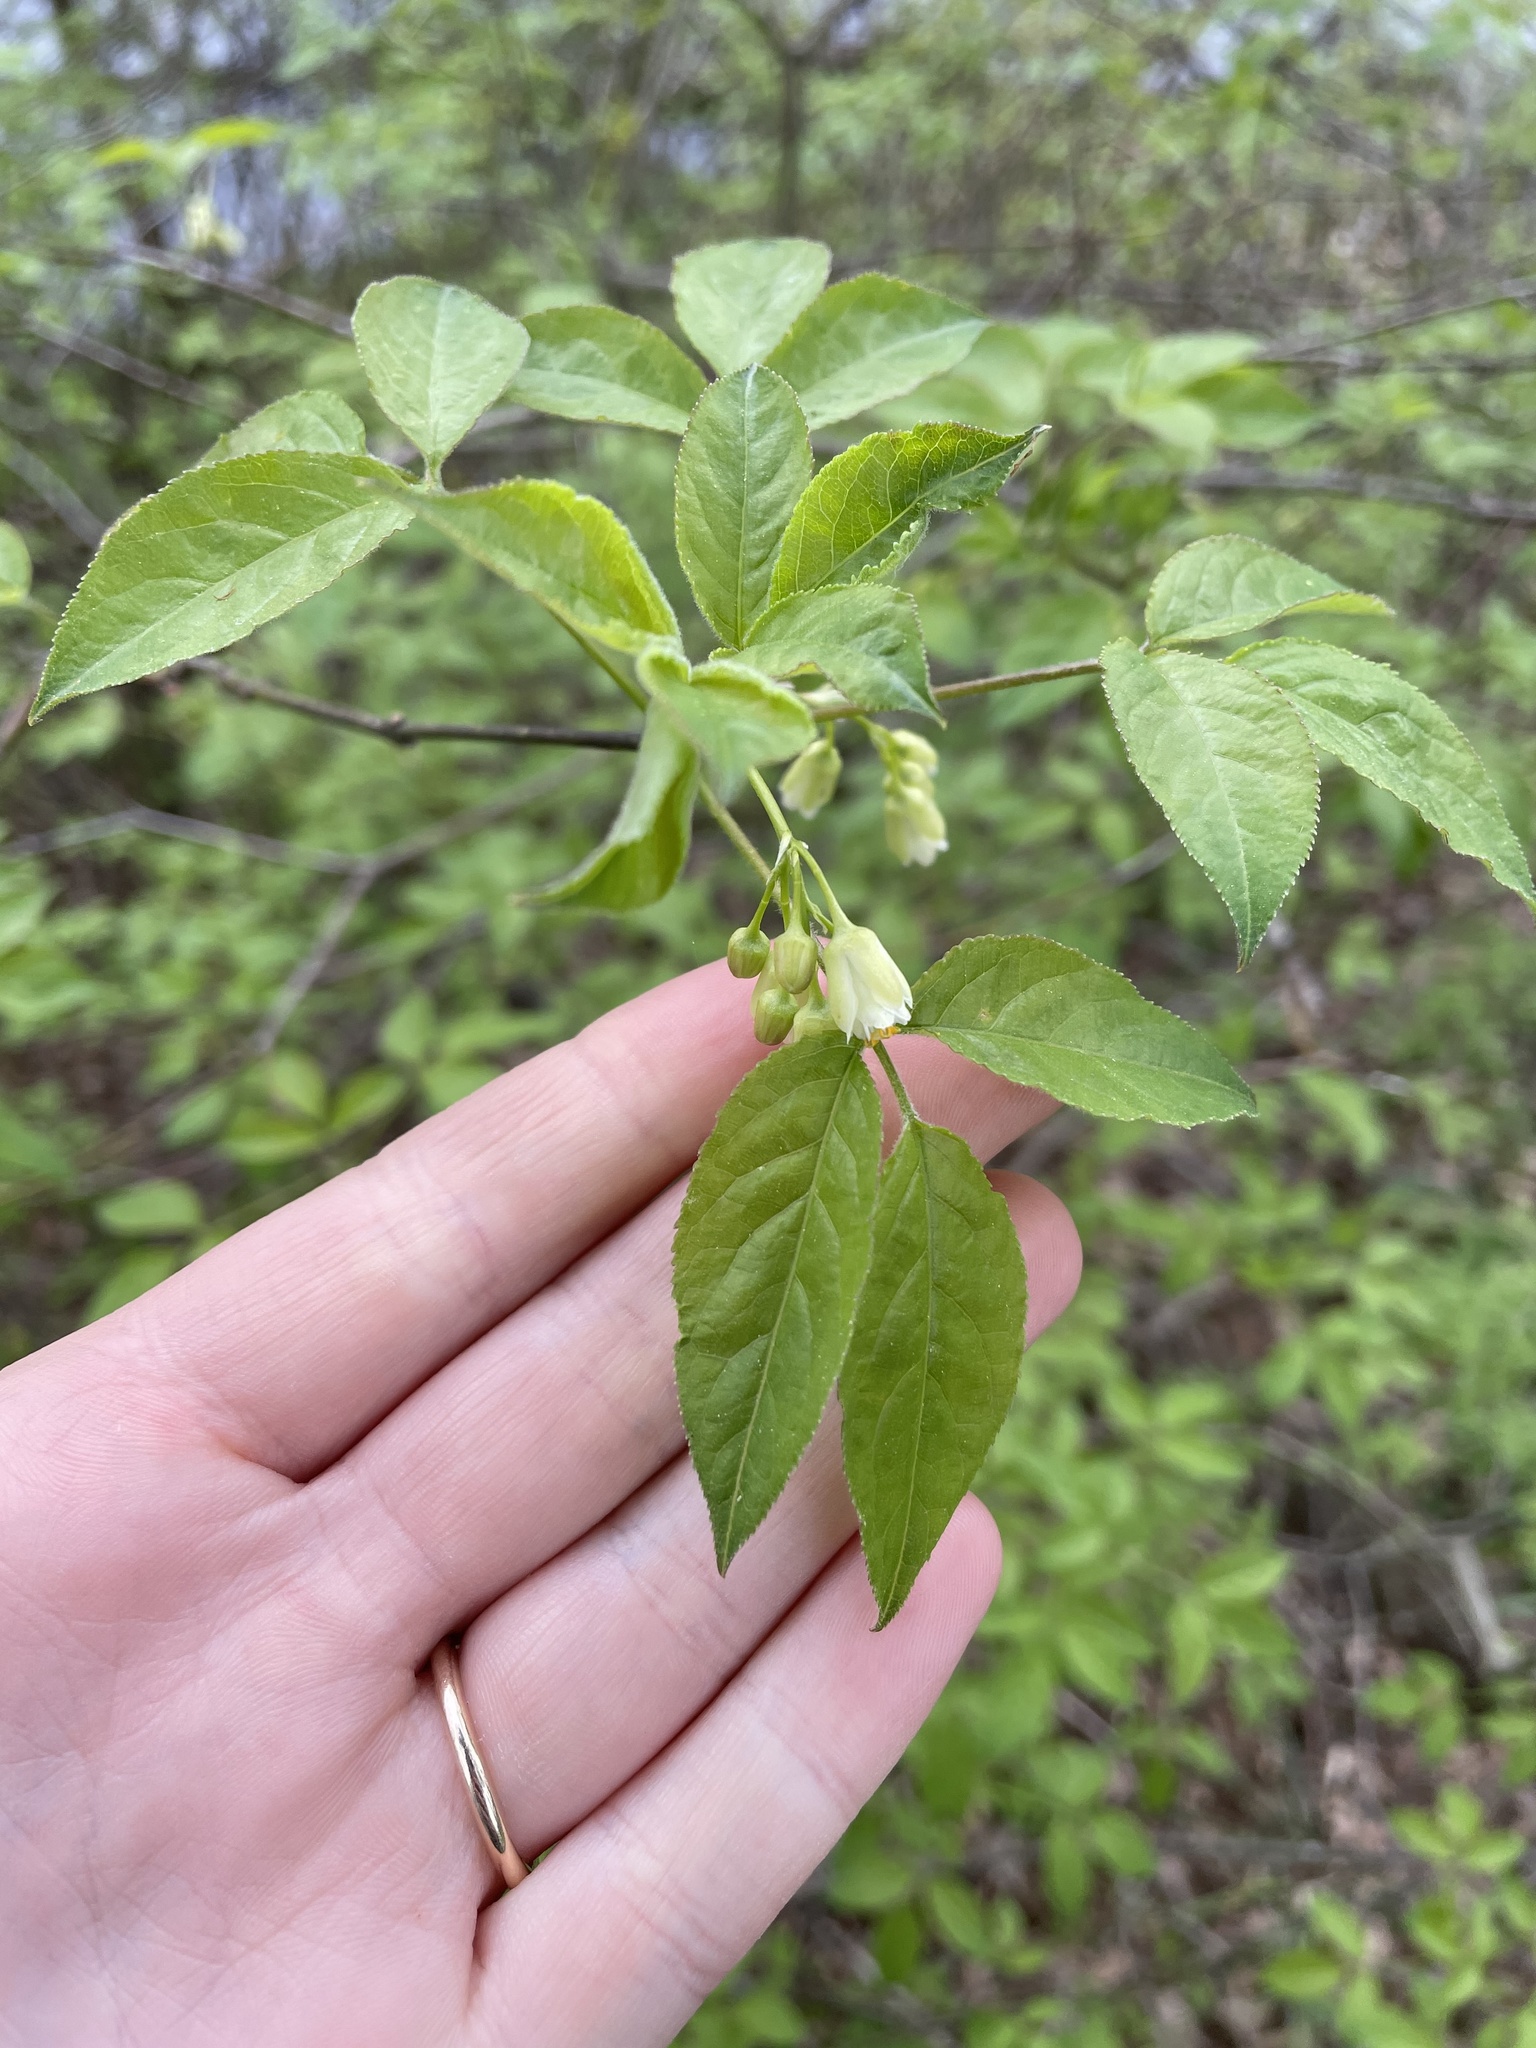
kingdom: Plantae
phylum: Tracheophyta
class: Magnoliopsida
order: Crossosomatales
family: Staphyleaceae
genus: Staphylea
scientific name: Staphylea trifolia
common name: American bladdernut
